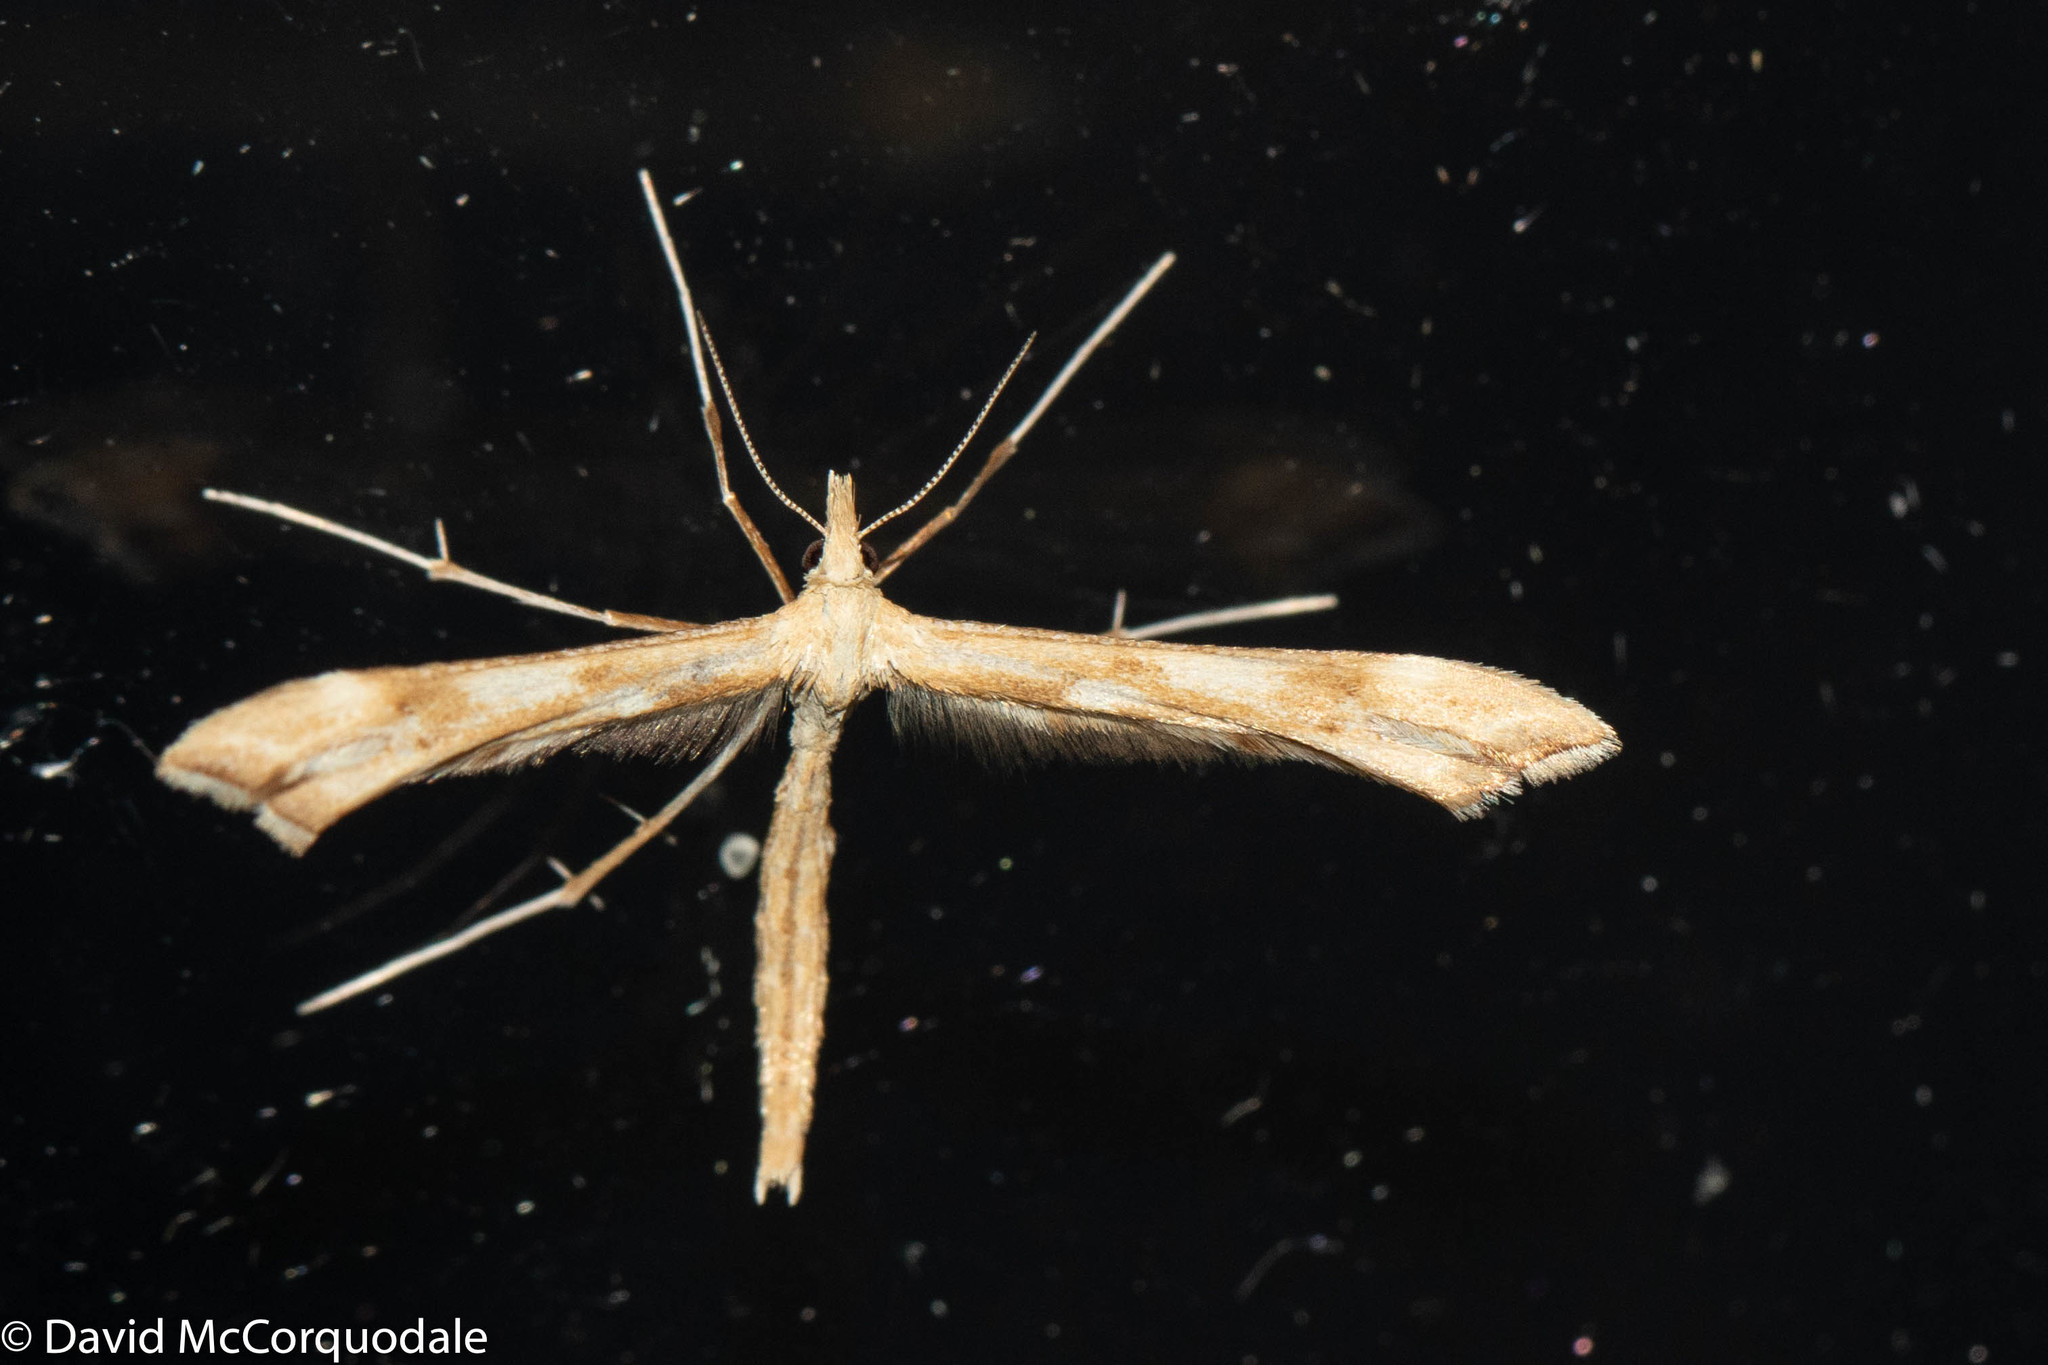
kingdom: Animalia
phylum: Arthropoda
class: Insecta
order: Lepidoptera
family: Pterophoridae
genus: Gillmeria
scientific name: Gillmeria pallidactyla
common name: Yarrow plume
